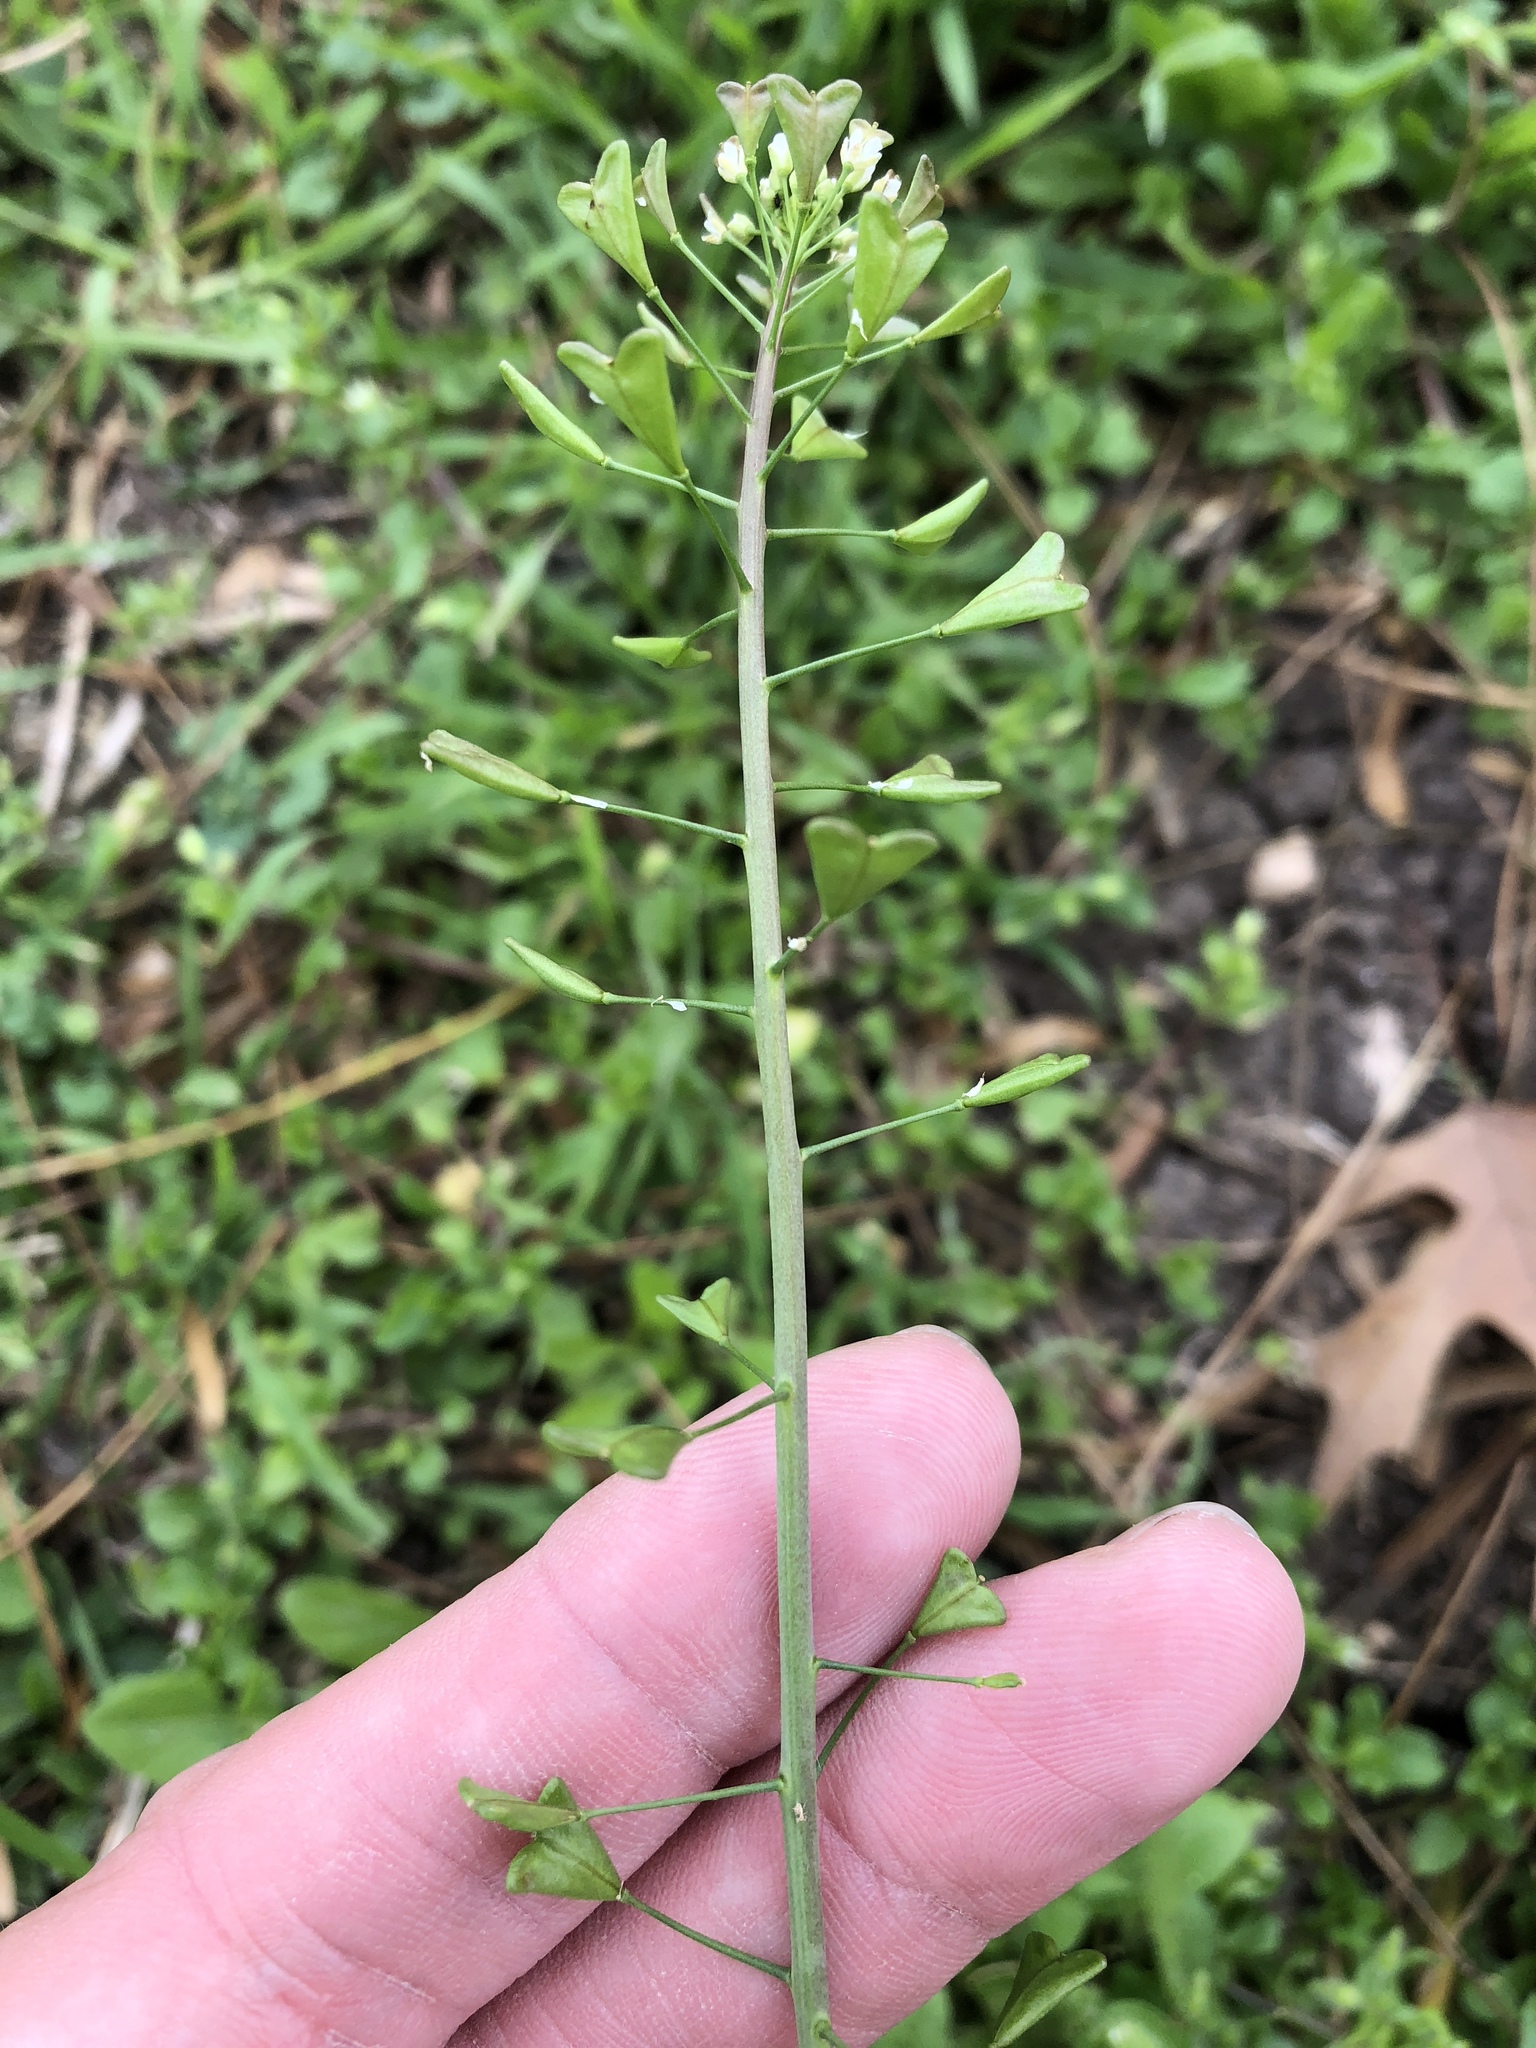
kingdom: Plantae
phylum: Tracheophyta
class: Magnoliopsida
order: Brassicales
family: Brassicaceae
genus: Capsella
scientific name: Capsella bursa-pastoris
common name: Shepherd's purse
